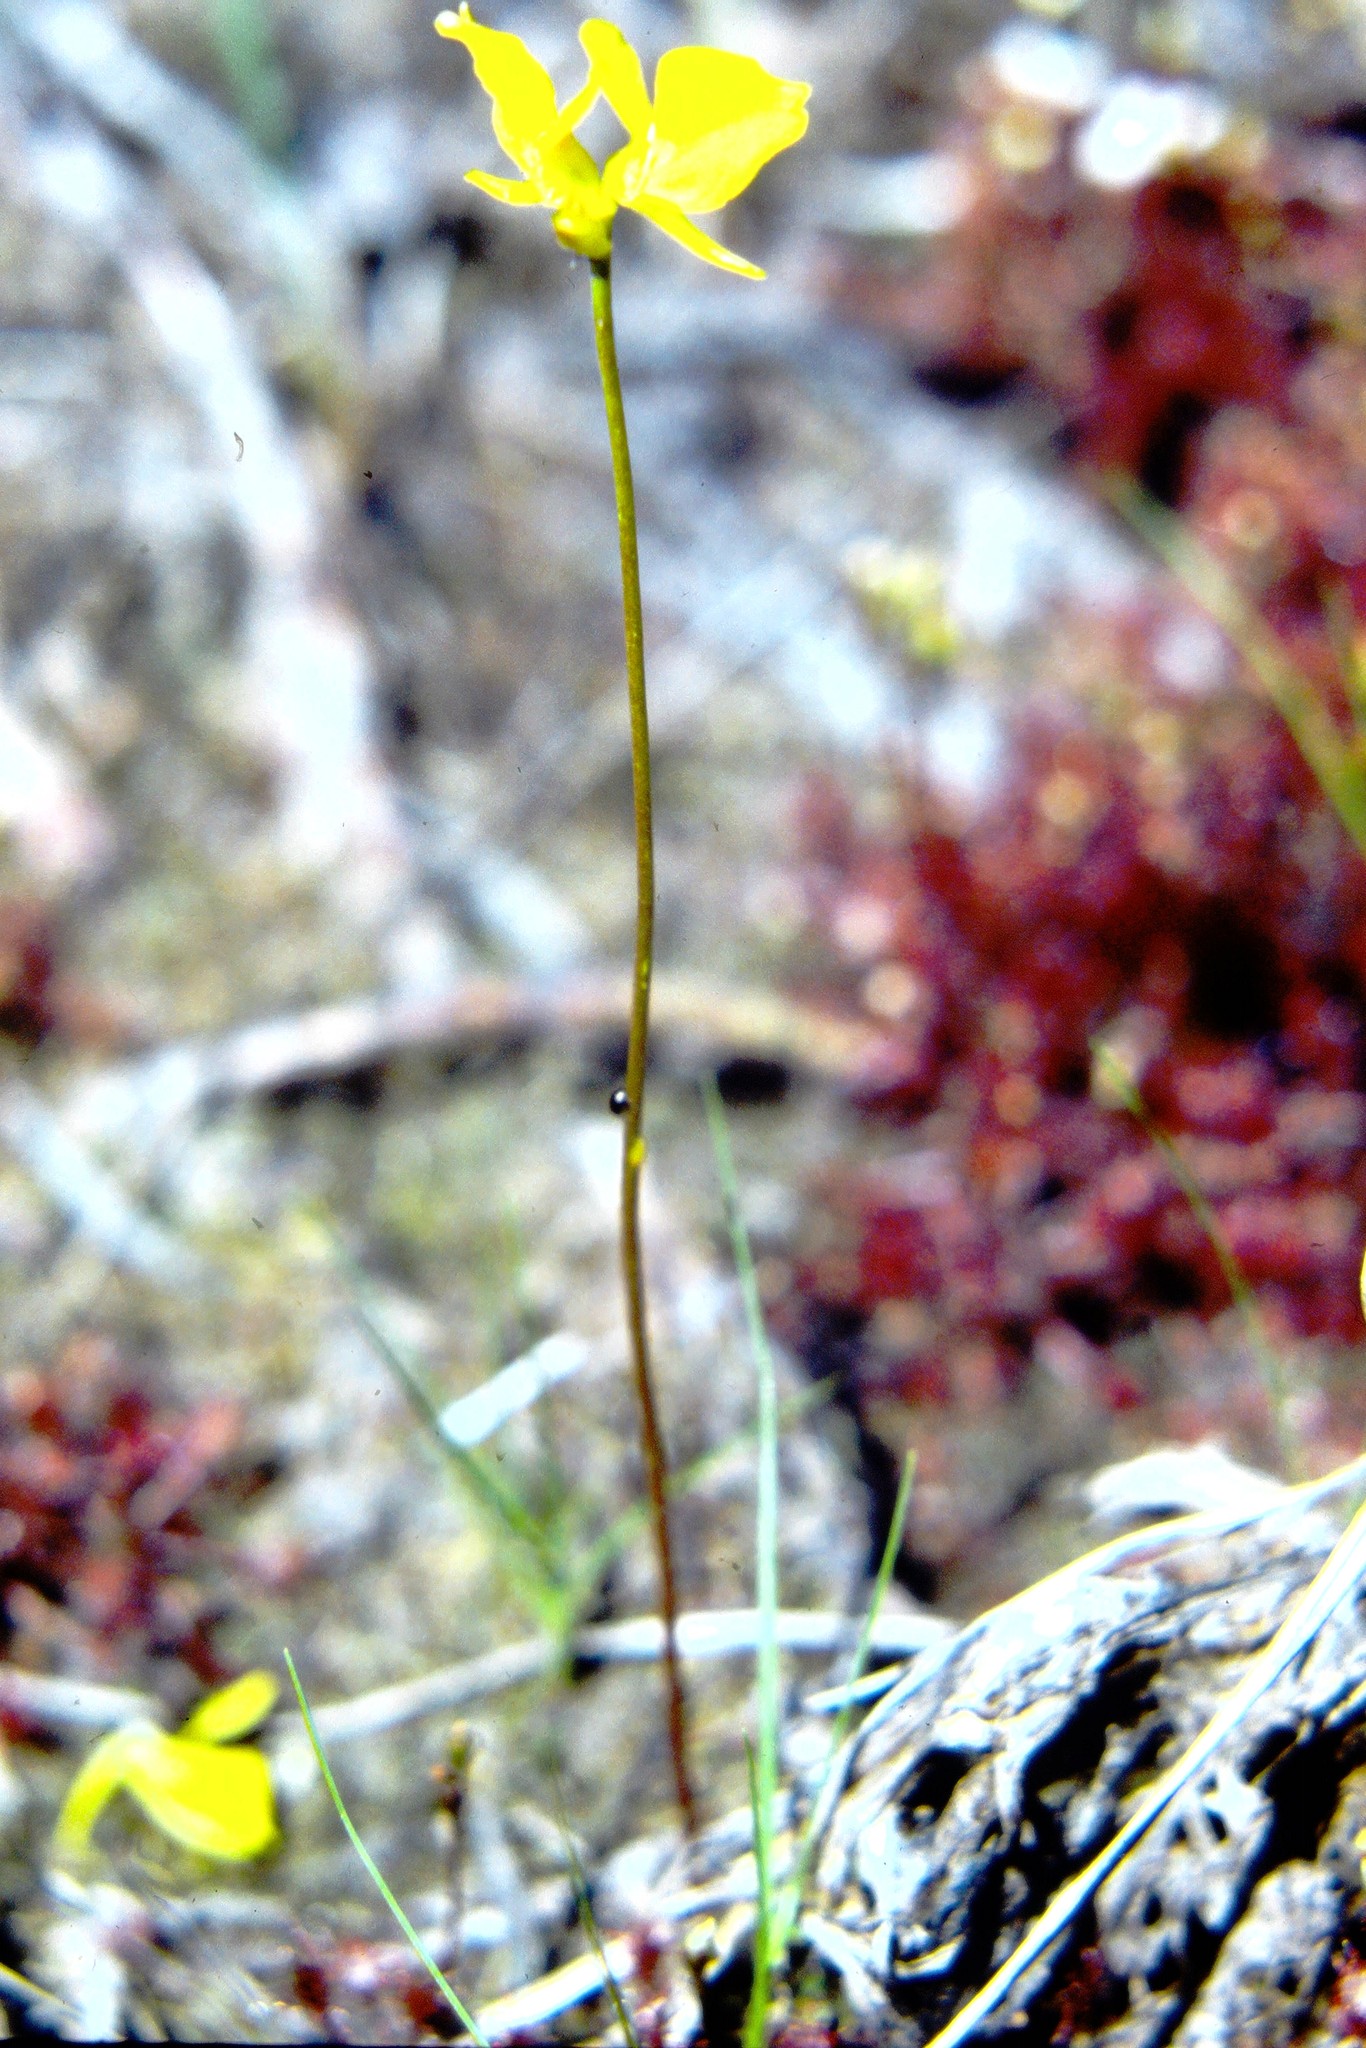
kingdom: Plantae
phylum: Tracheophyta
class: Magnoliopsida
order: Lamiales
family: Lentibulariaceae
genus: Utricularia
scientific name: Utricularia cornuta
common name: Horned bladderwort
